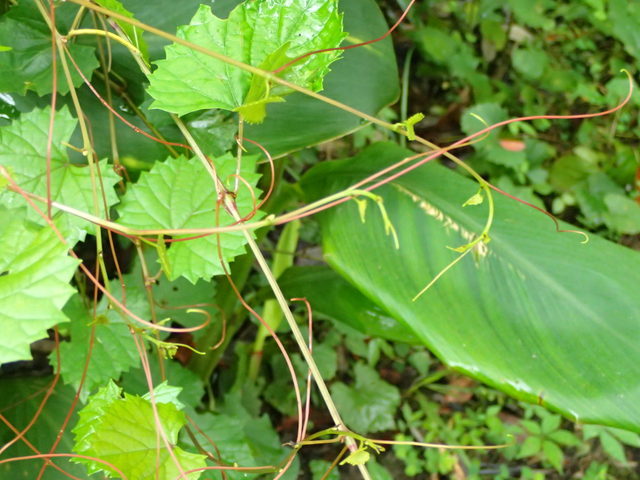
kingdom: Plantae
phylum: Tracheophyta
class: Magnoliopsida
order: Vitales
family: Vitaceae
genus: Vitis
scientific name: Vitis rotundifolia
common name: Muscadine grape
